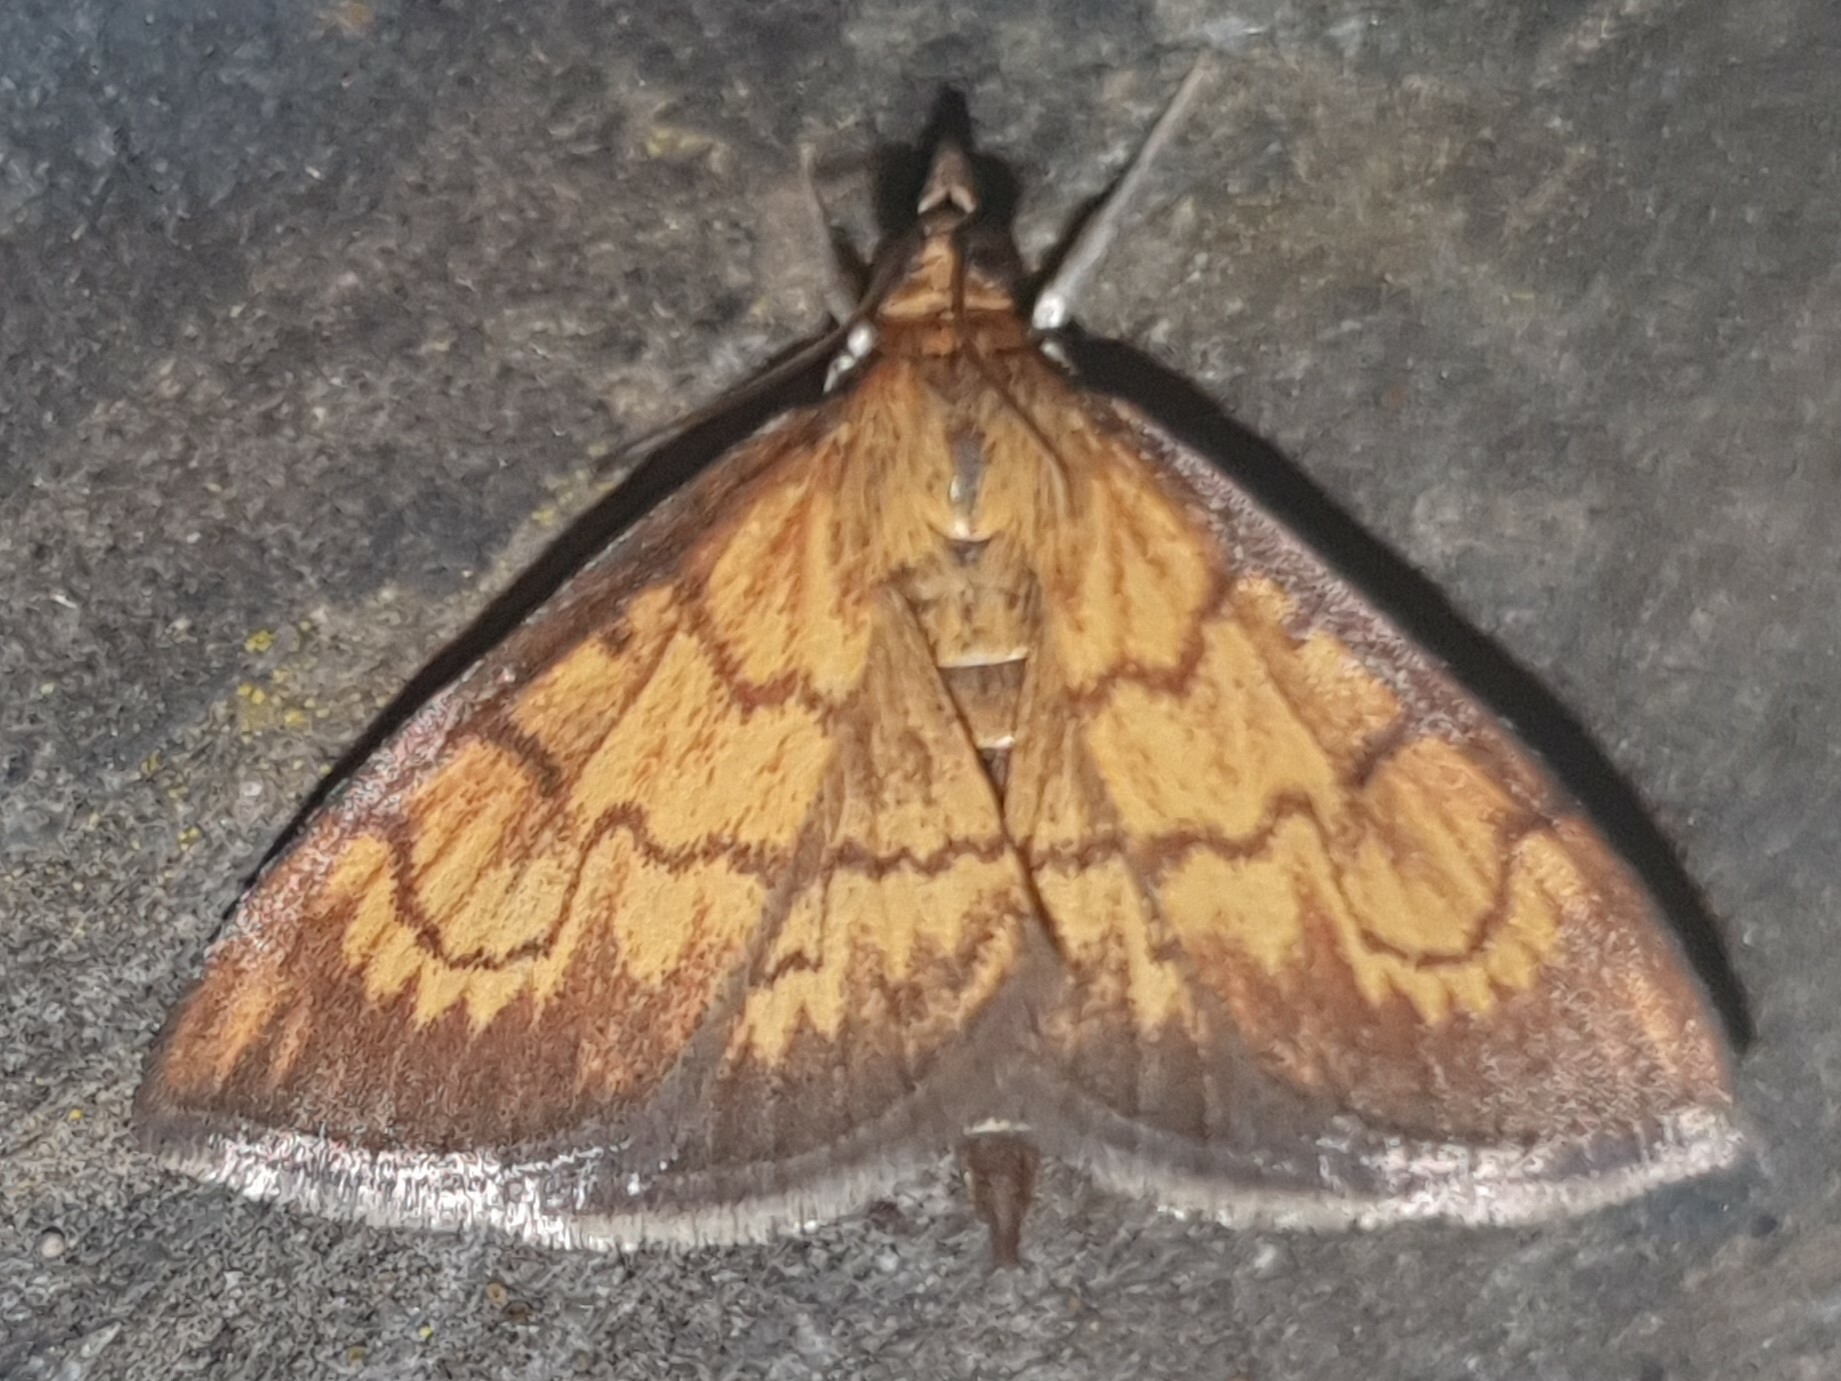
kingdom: Animalia
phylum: Arthropoda
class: Insecta
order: Lepidoptera
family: Crambidae
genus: Ecpyrrhorrhoe
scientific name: Ecpyrrhorrhoe rubiginalis
